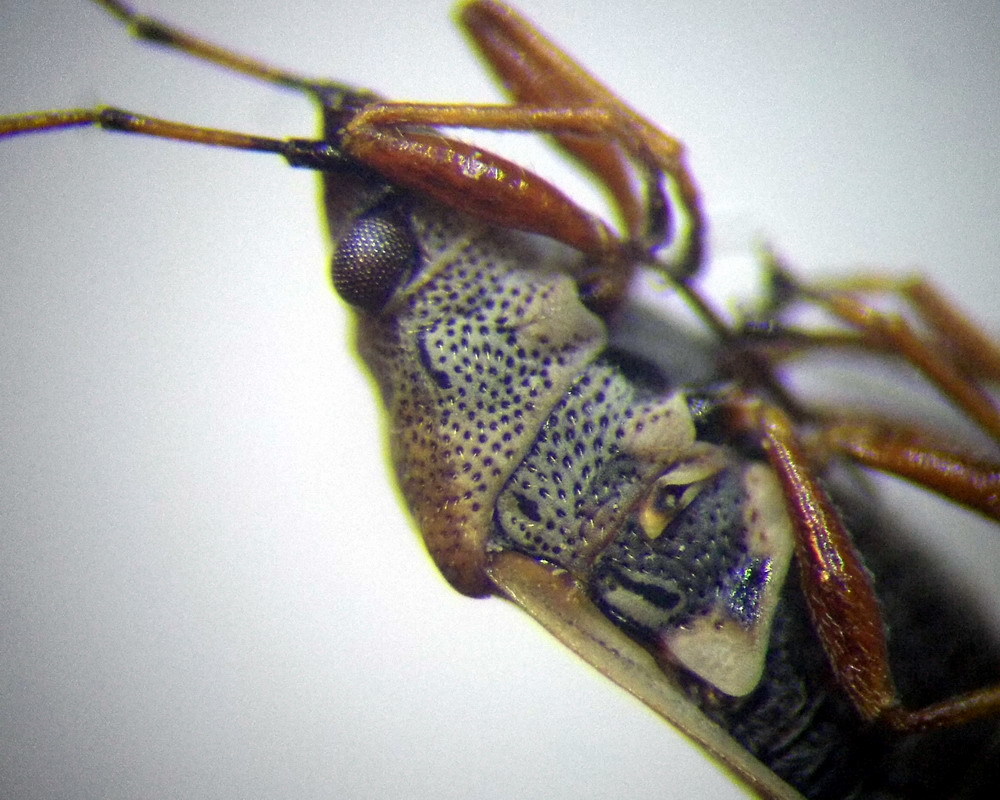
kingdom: Animalia
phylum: Arthropoda
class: Insecta
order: Hemiptera
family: Lygaeidae
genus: Kleidocerys
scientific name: Kleidocerys resedae
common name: Birch catkin bug
